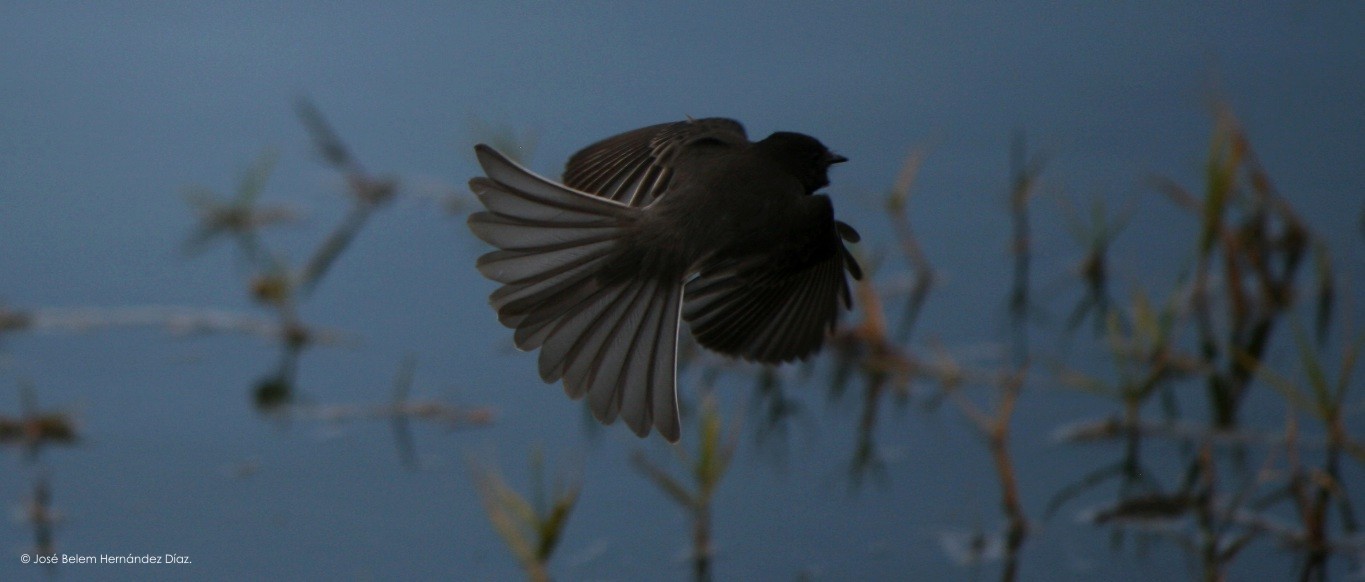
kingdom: Animalia
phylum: Chordata
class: Aves
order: Passeriformes
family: Tyrannidae
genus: Sayornis
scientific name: Sayornis nigricans
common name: Black phoebe
